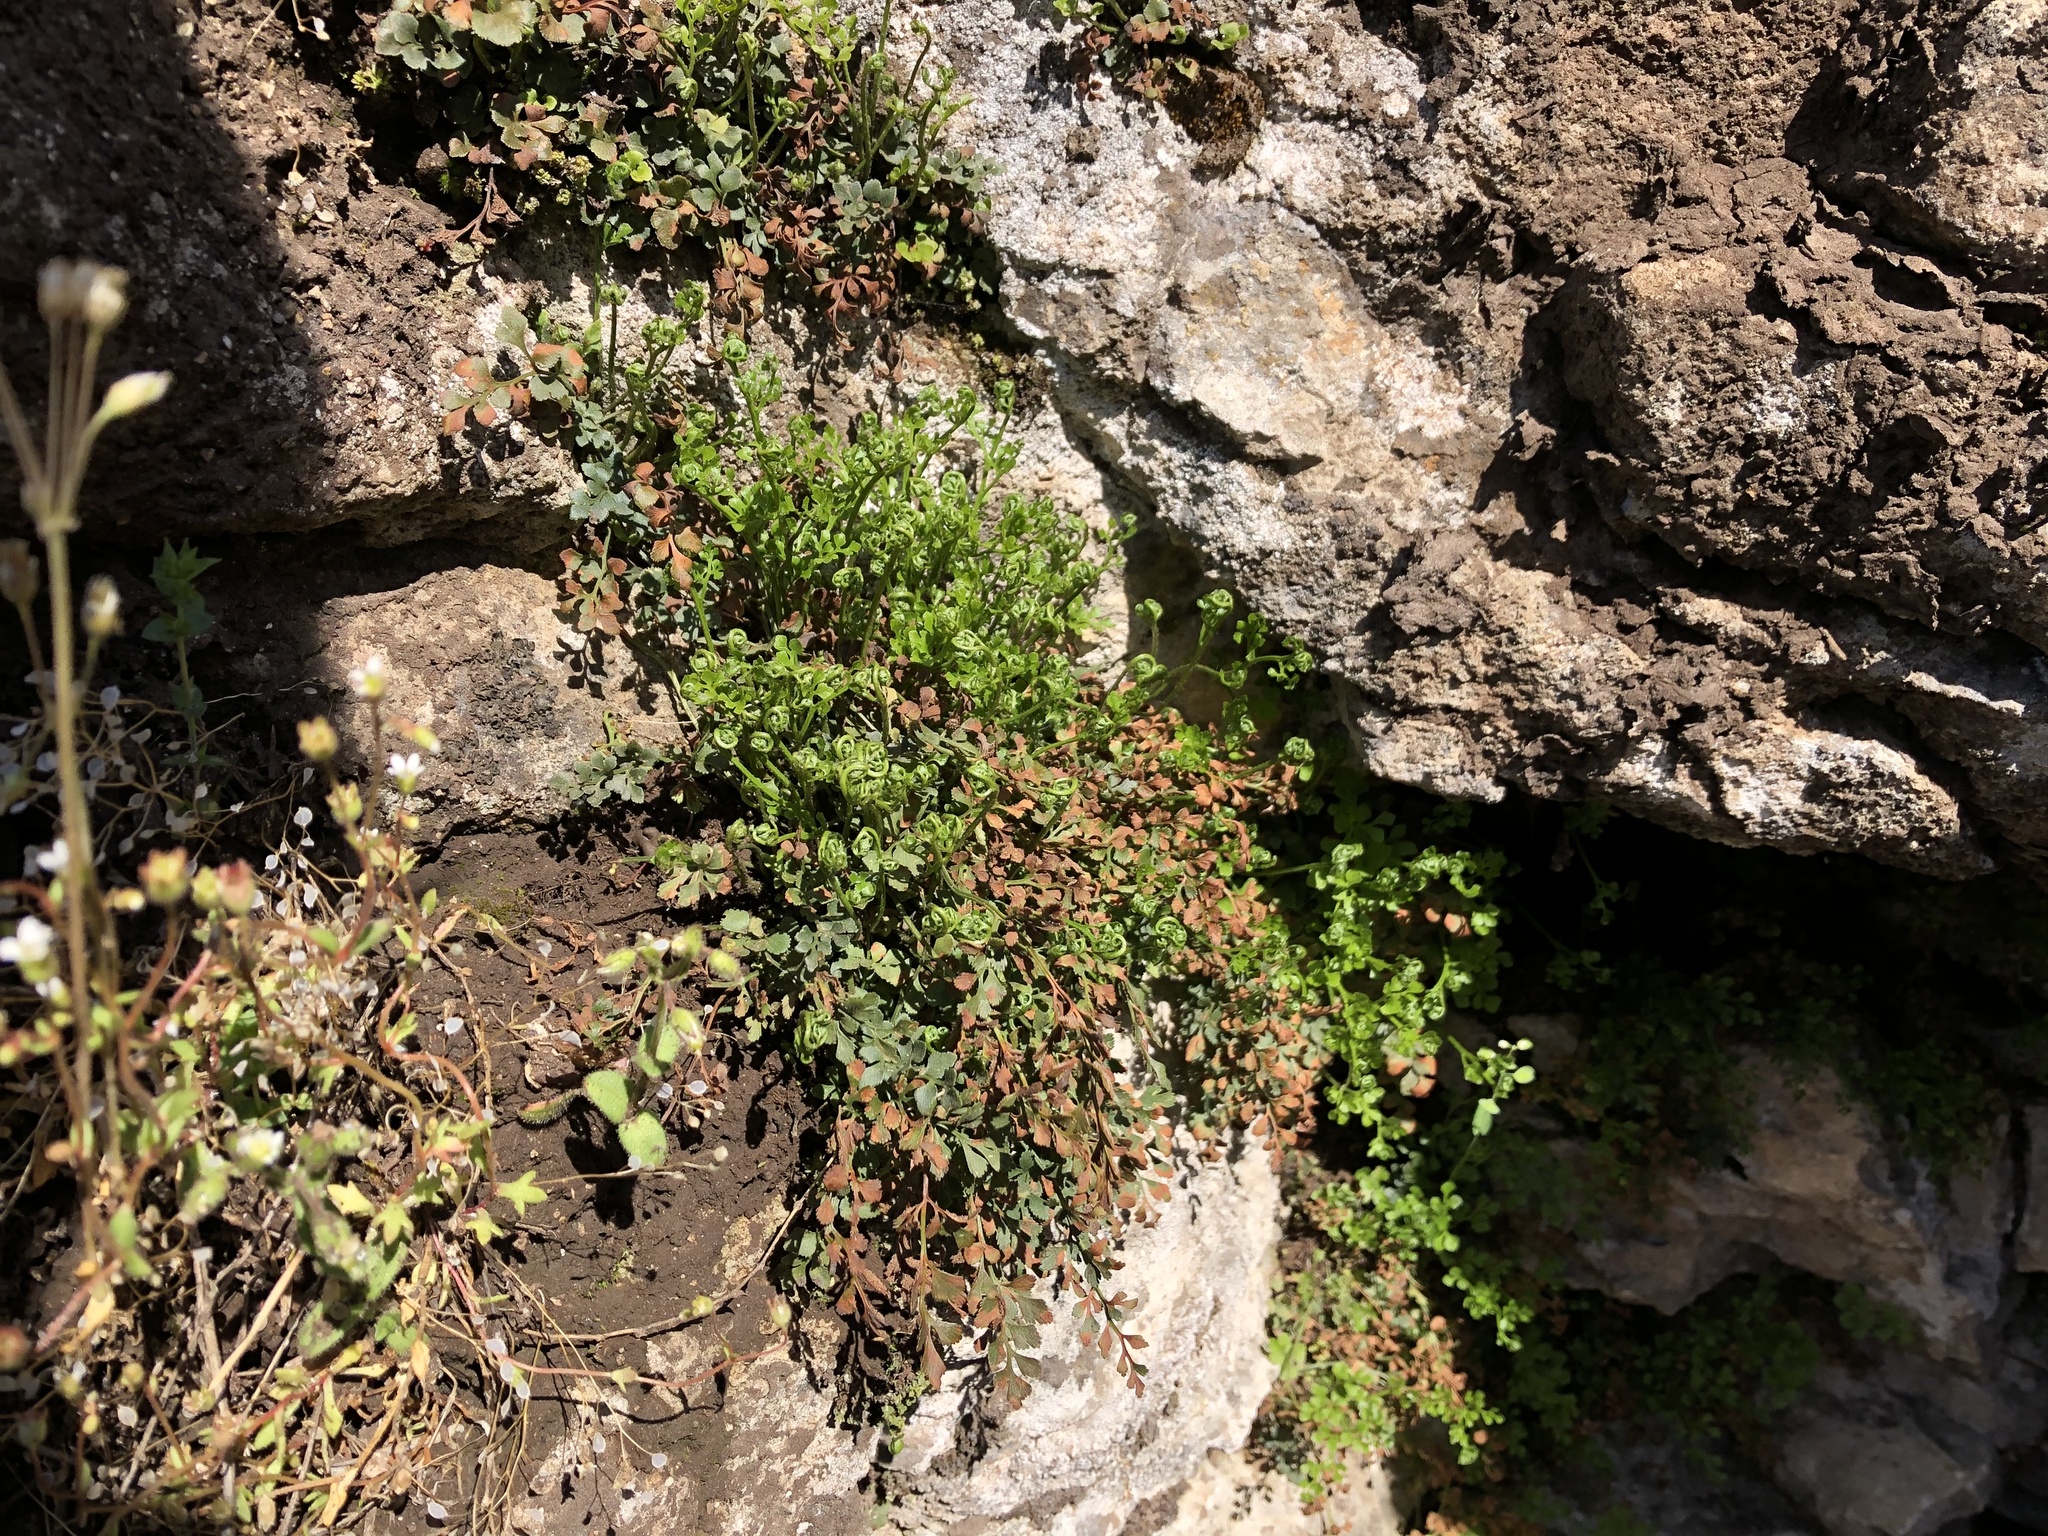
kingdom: Plantae
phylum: Tracheophyta
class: Polypodiopsida
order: Polypodiales
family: Aspleniaceae
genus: Asplenium
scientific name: Asplenium ruta-muraria
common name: Wall-rue
